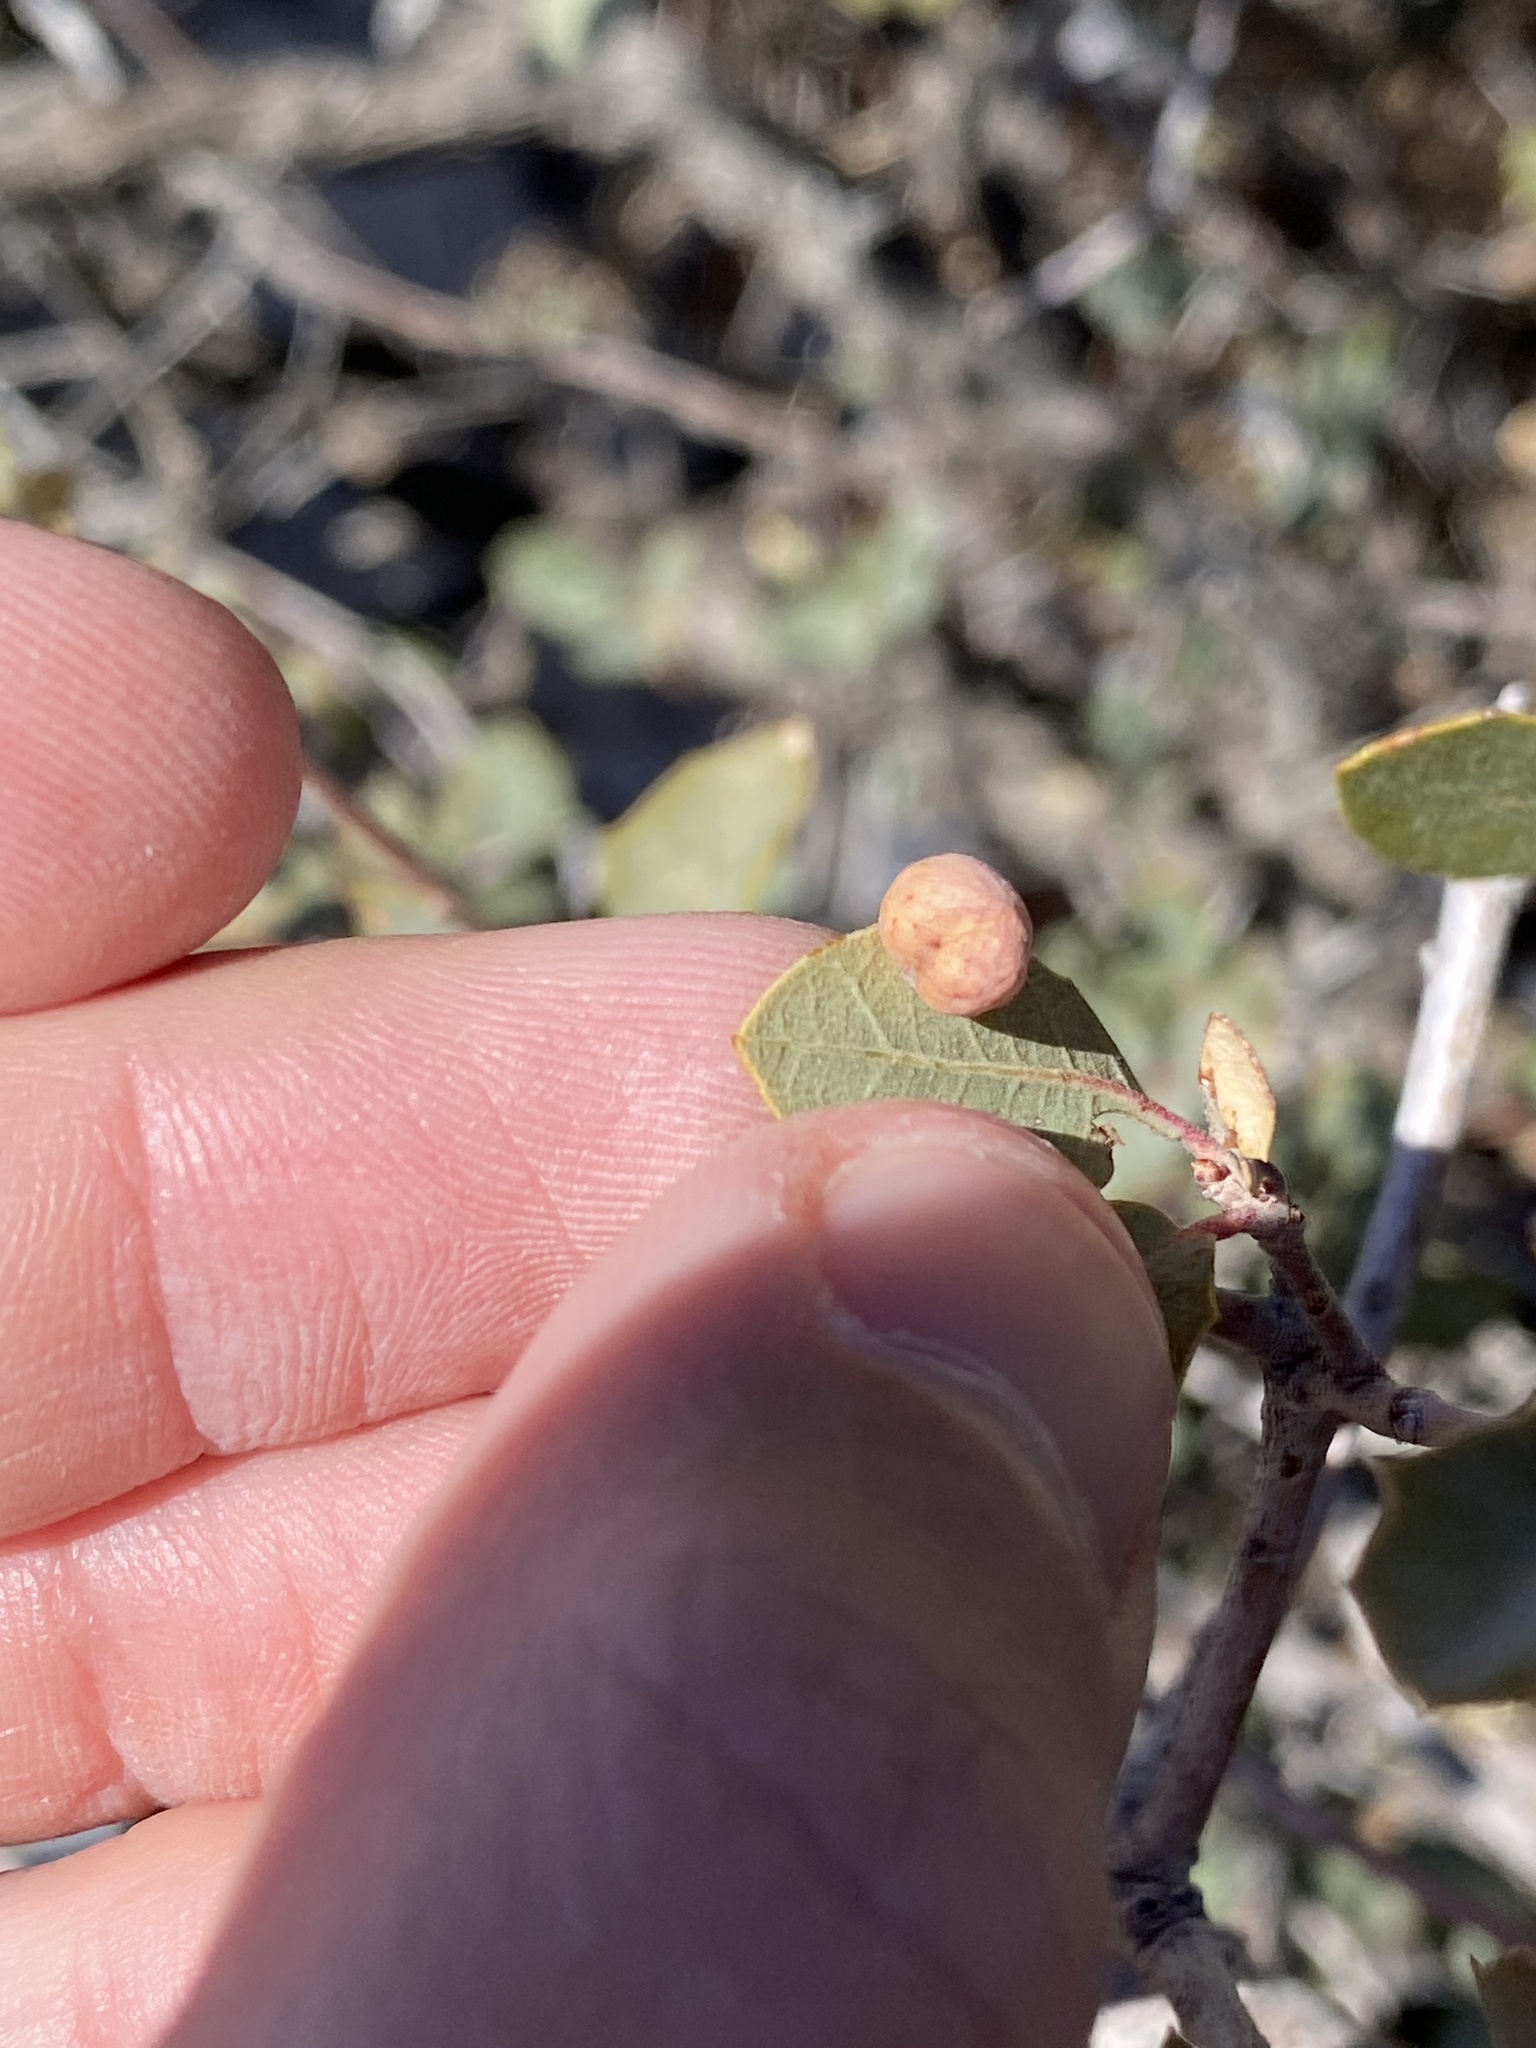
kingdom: Animalia
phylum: Arthropoda
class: Insecta
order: Hymenoptera
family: Cynipidae
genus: Atrusca
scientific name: Atrusca
